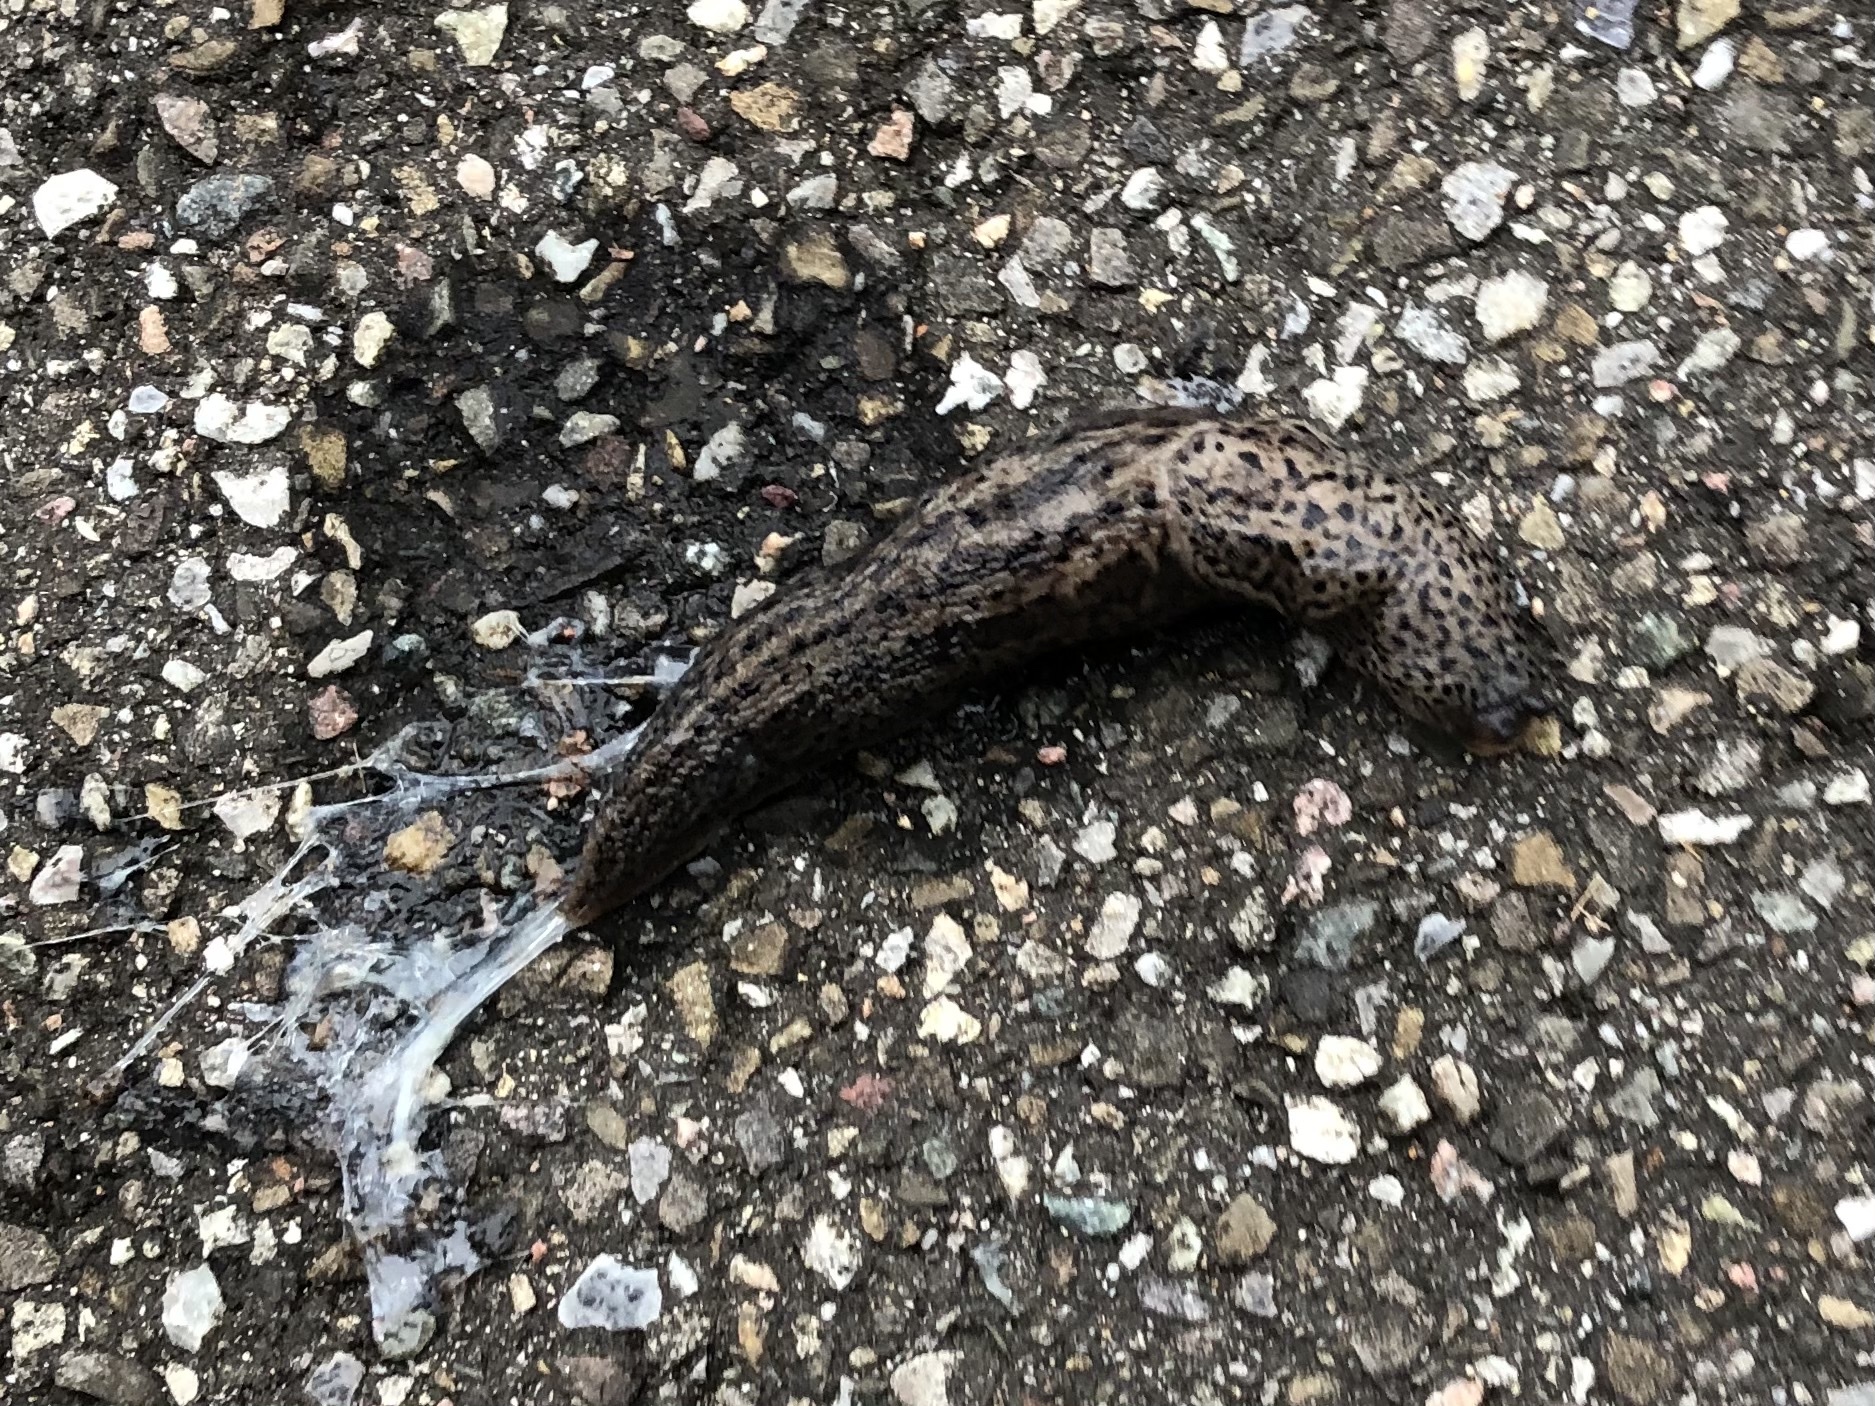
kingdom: Animalia
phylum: Mollusca
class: Gastropoda
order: Stylommatophora
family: Limacidae
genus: Limax
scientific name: Limax maximus
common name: Great grey slug
